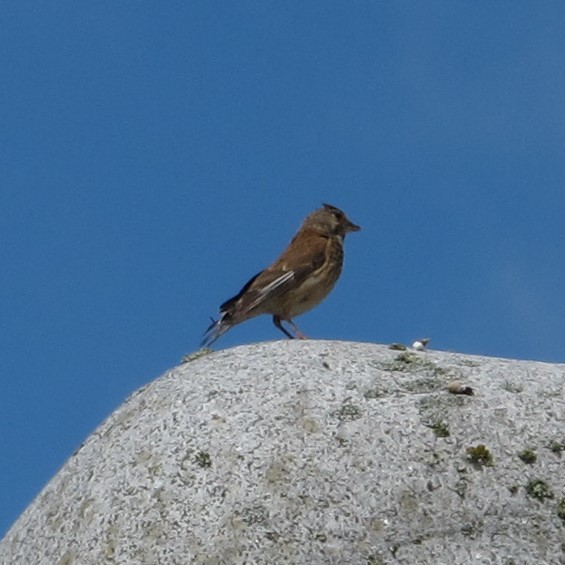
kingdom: Animalia
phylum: Chordata
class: Aves
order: Passeriformes
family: Fringillidae
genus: Linaria
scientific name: Linaria cannabina
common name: Common linnet
